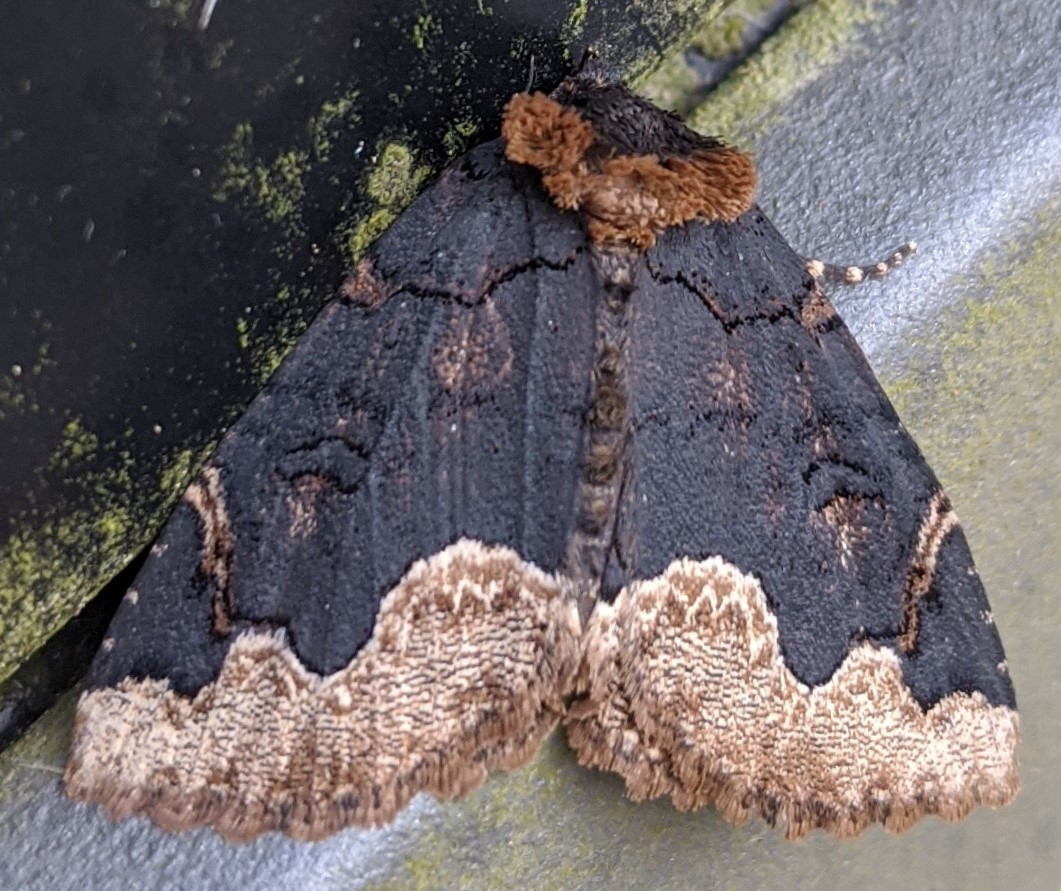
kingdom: Animalia
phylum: Arthropoda
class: Insecta
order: Lepidoptera
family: Erebidae
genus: Zale
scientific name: Zale horrida
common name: Horrid zale moth
